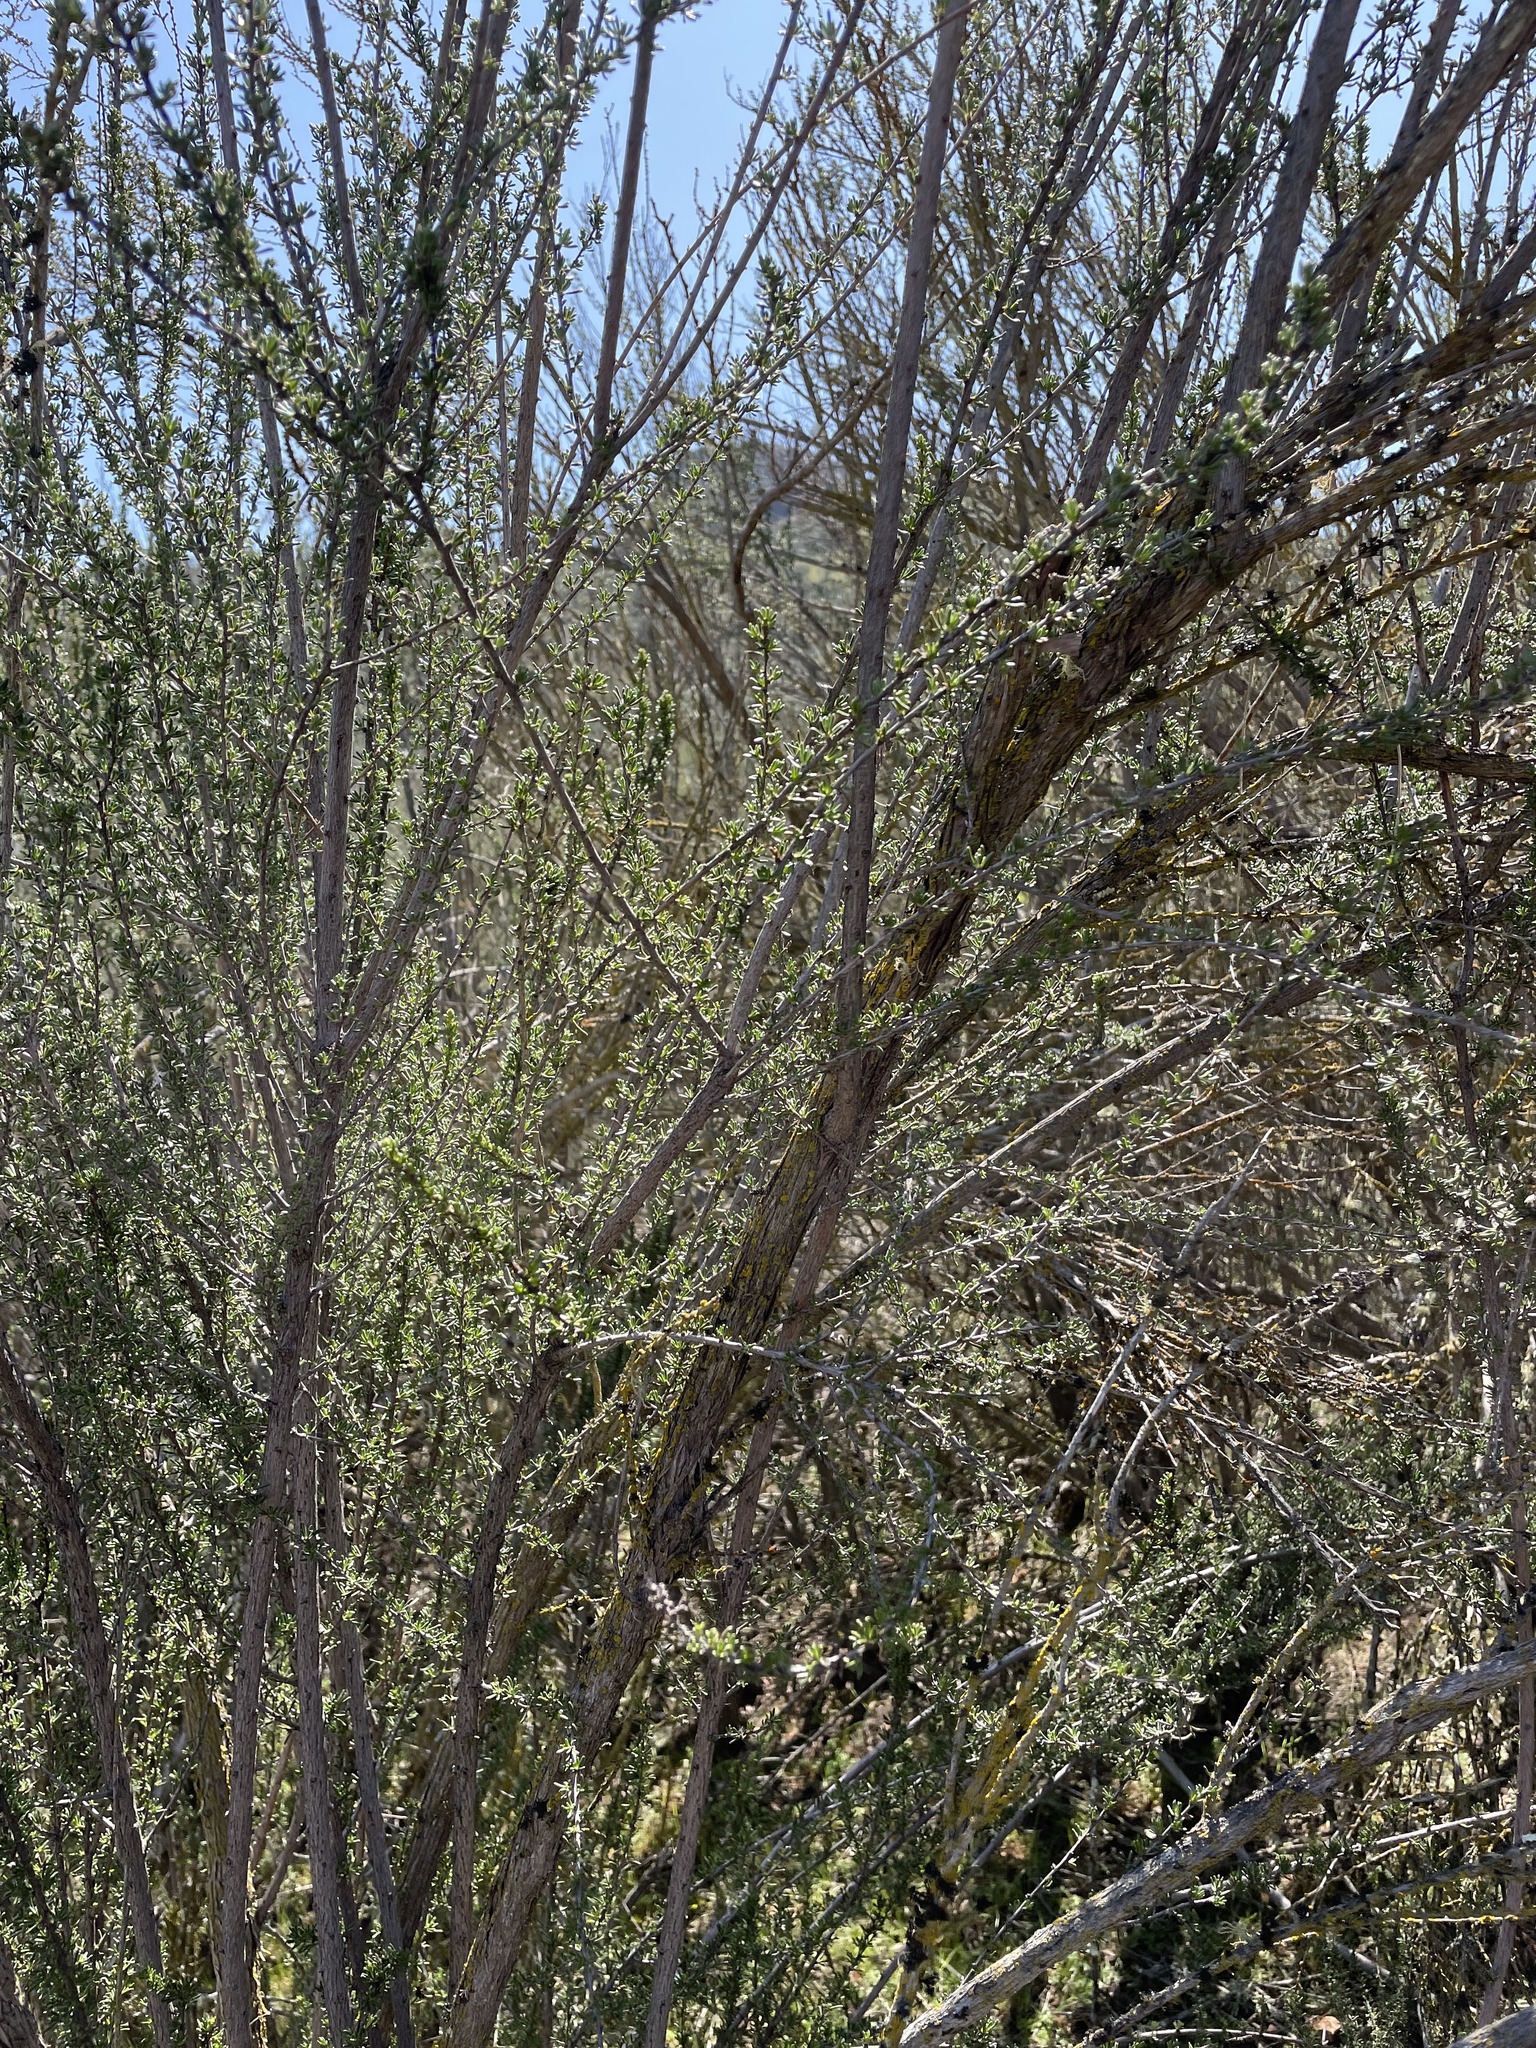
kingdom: Plantae
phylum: Tracheophyta
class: Magnoliopsida
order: Rosales
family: Rosaceae
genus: Adenostoma
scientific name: Adenostoma fasciculatum
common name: Chamise
